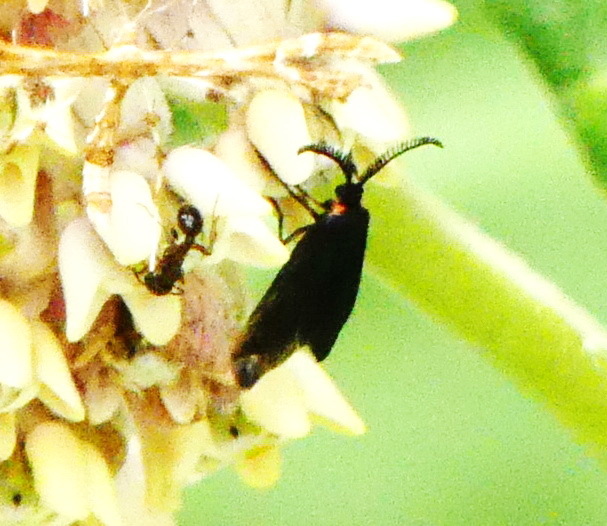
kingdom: Animalia
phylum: Arthropoda
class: Insecta
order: Lepidoptera
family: Zygaenidae
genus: Acoloithus
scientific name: Acoloithus falsarius
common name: Clemens' false skeletonizer
